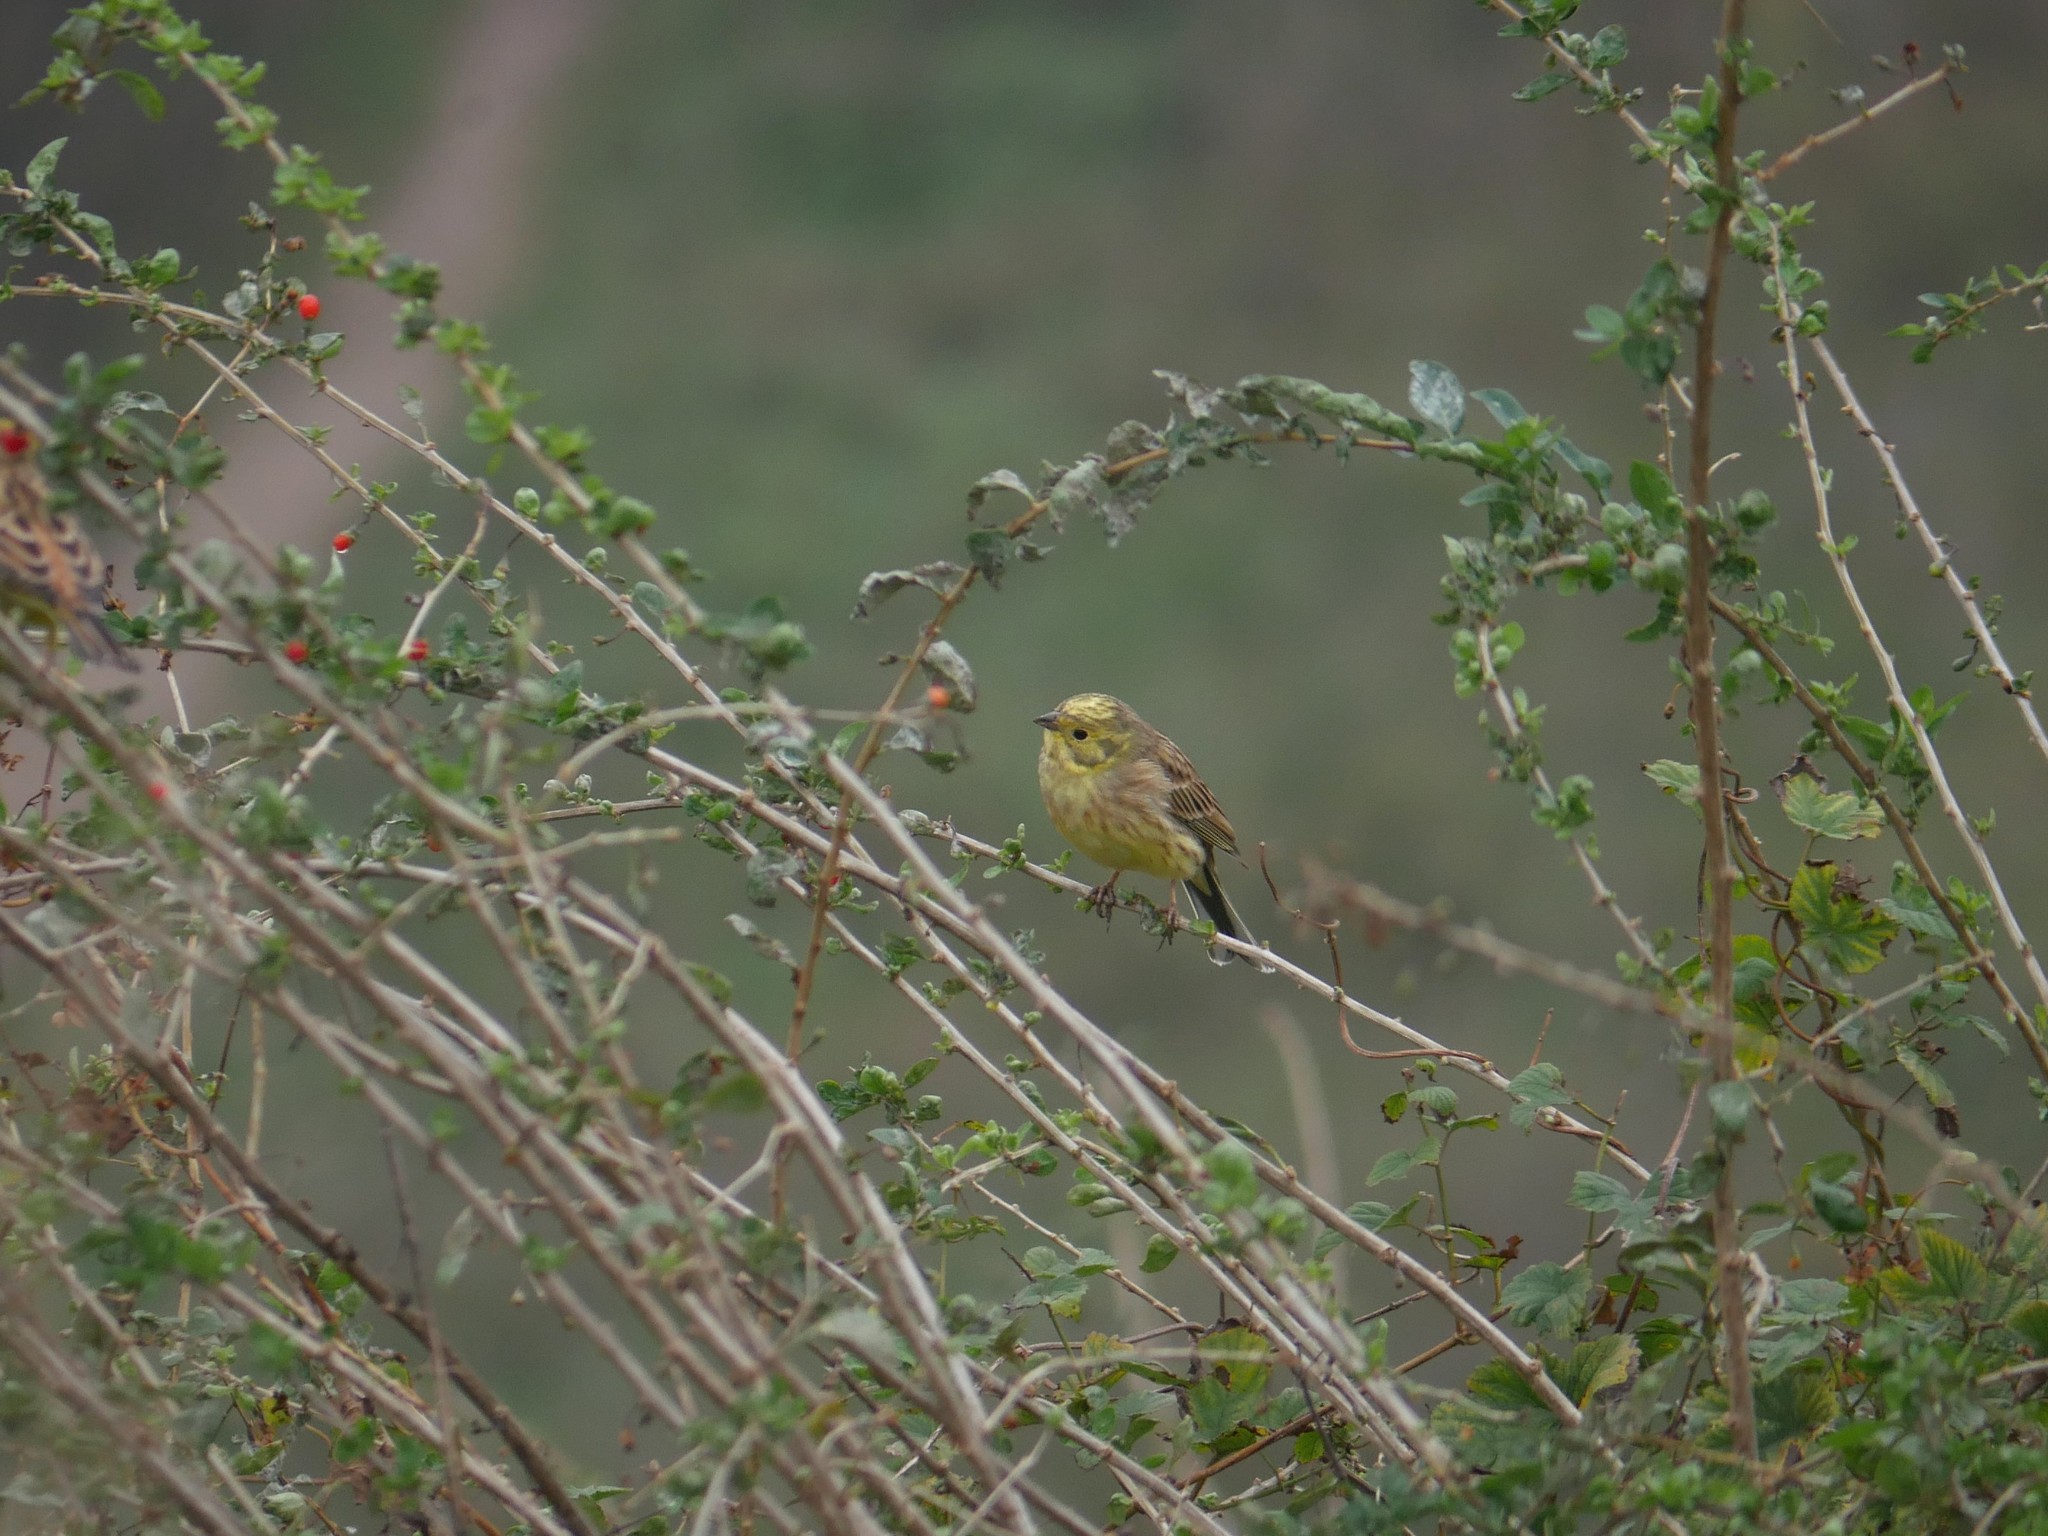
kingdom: Animalia
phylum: Chordata
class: Aves
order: Passeriformes
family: Emberizidae
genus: Emberiza
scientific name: Emberiza citrinella
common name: Yellowhammer
